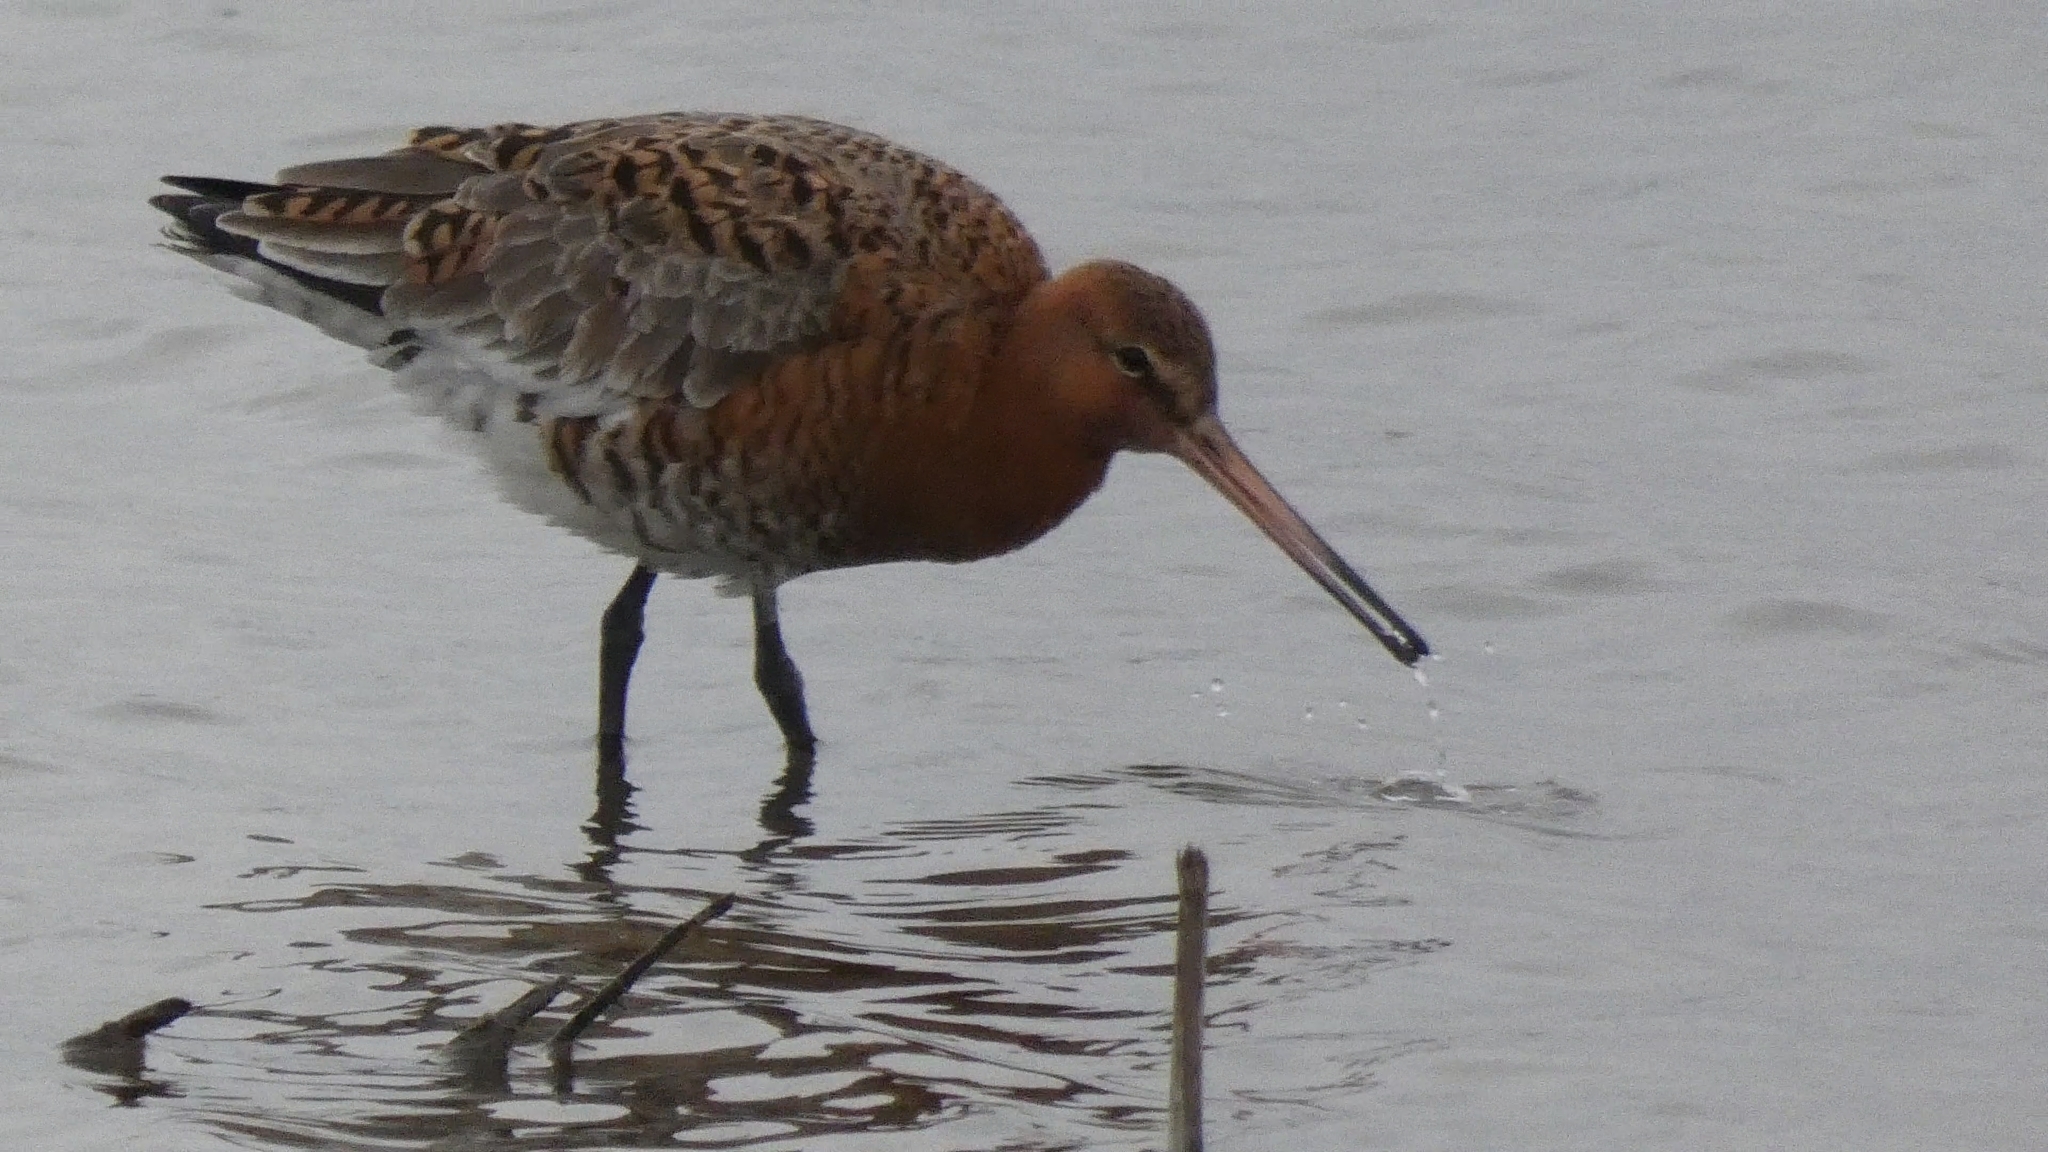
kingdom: Animalia
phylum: Chordata
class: Aves
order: Charadriiformes
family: Scolopacidae
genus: Limosa
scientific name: Limosa limosa
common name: Black-tailed godwit
